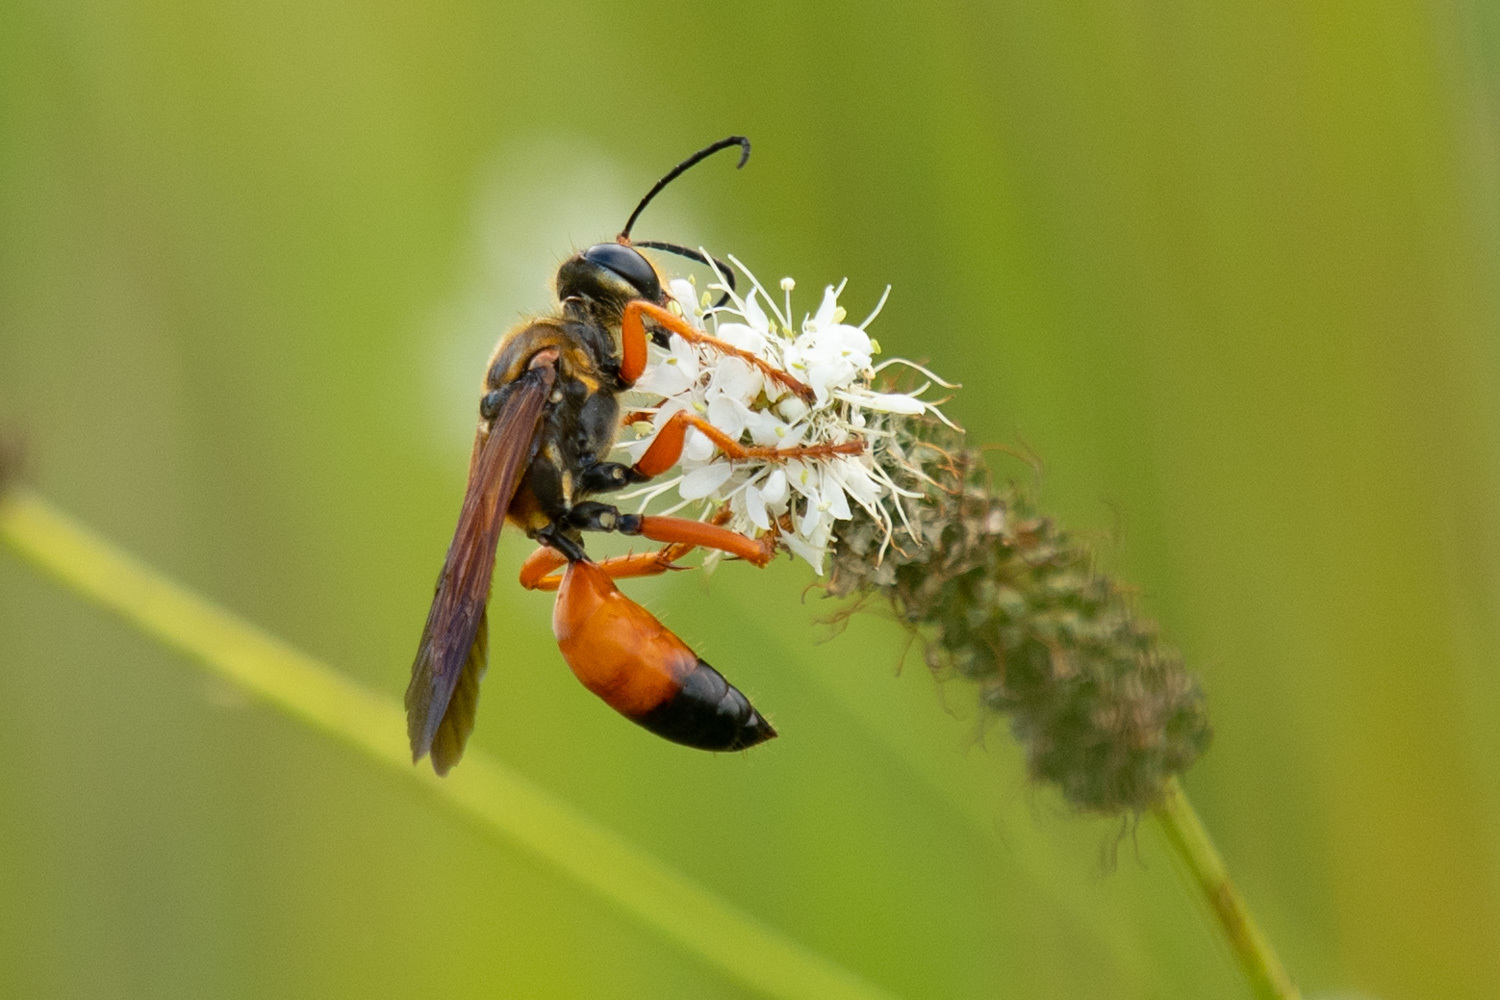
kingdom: Animalia
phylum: Arthropoda
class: Insecta
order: Hymenoptera
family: Sphecidae
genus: Sphex
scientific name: Sphex ichneumoneus
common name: Great golden digger wasp
